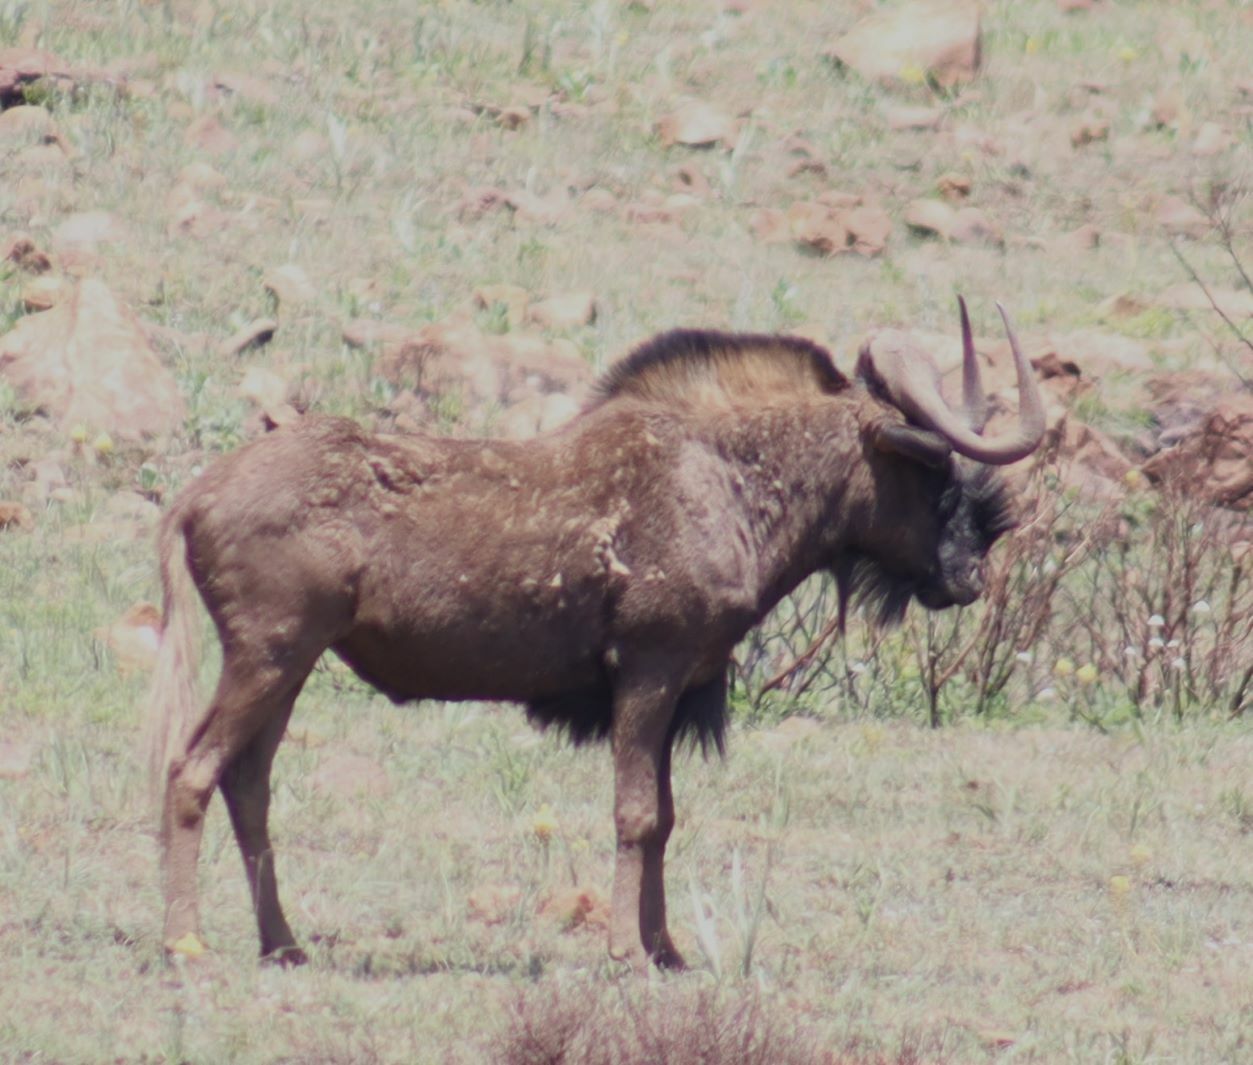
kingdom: Animalia
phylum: Chordata
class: Mammalia
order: Artiodactyla
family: Bovidae
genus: Connochaetes
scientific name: Connochaetes gnou
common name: Black wildebeest
